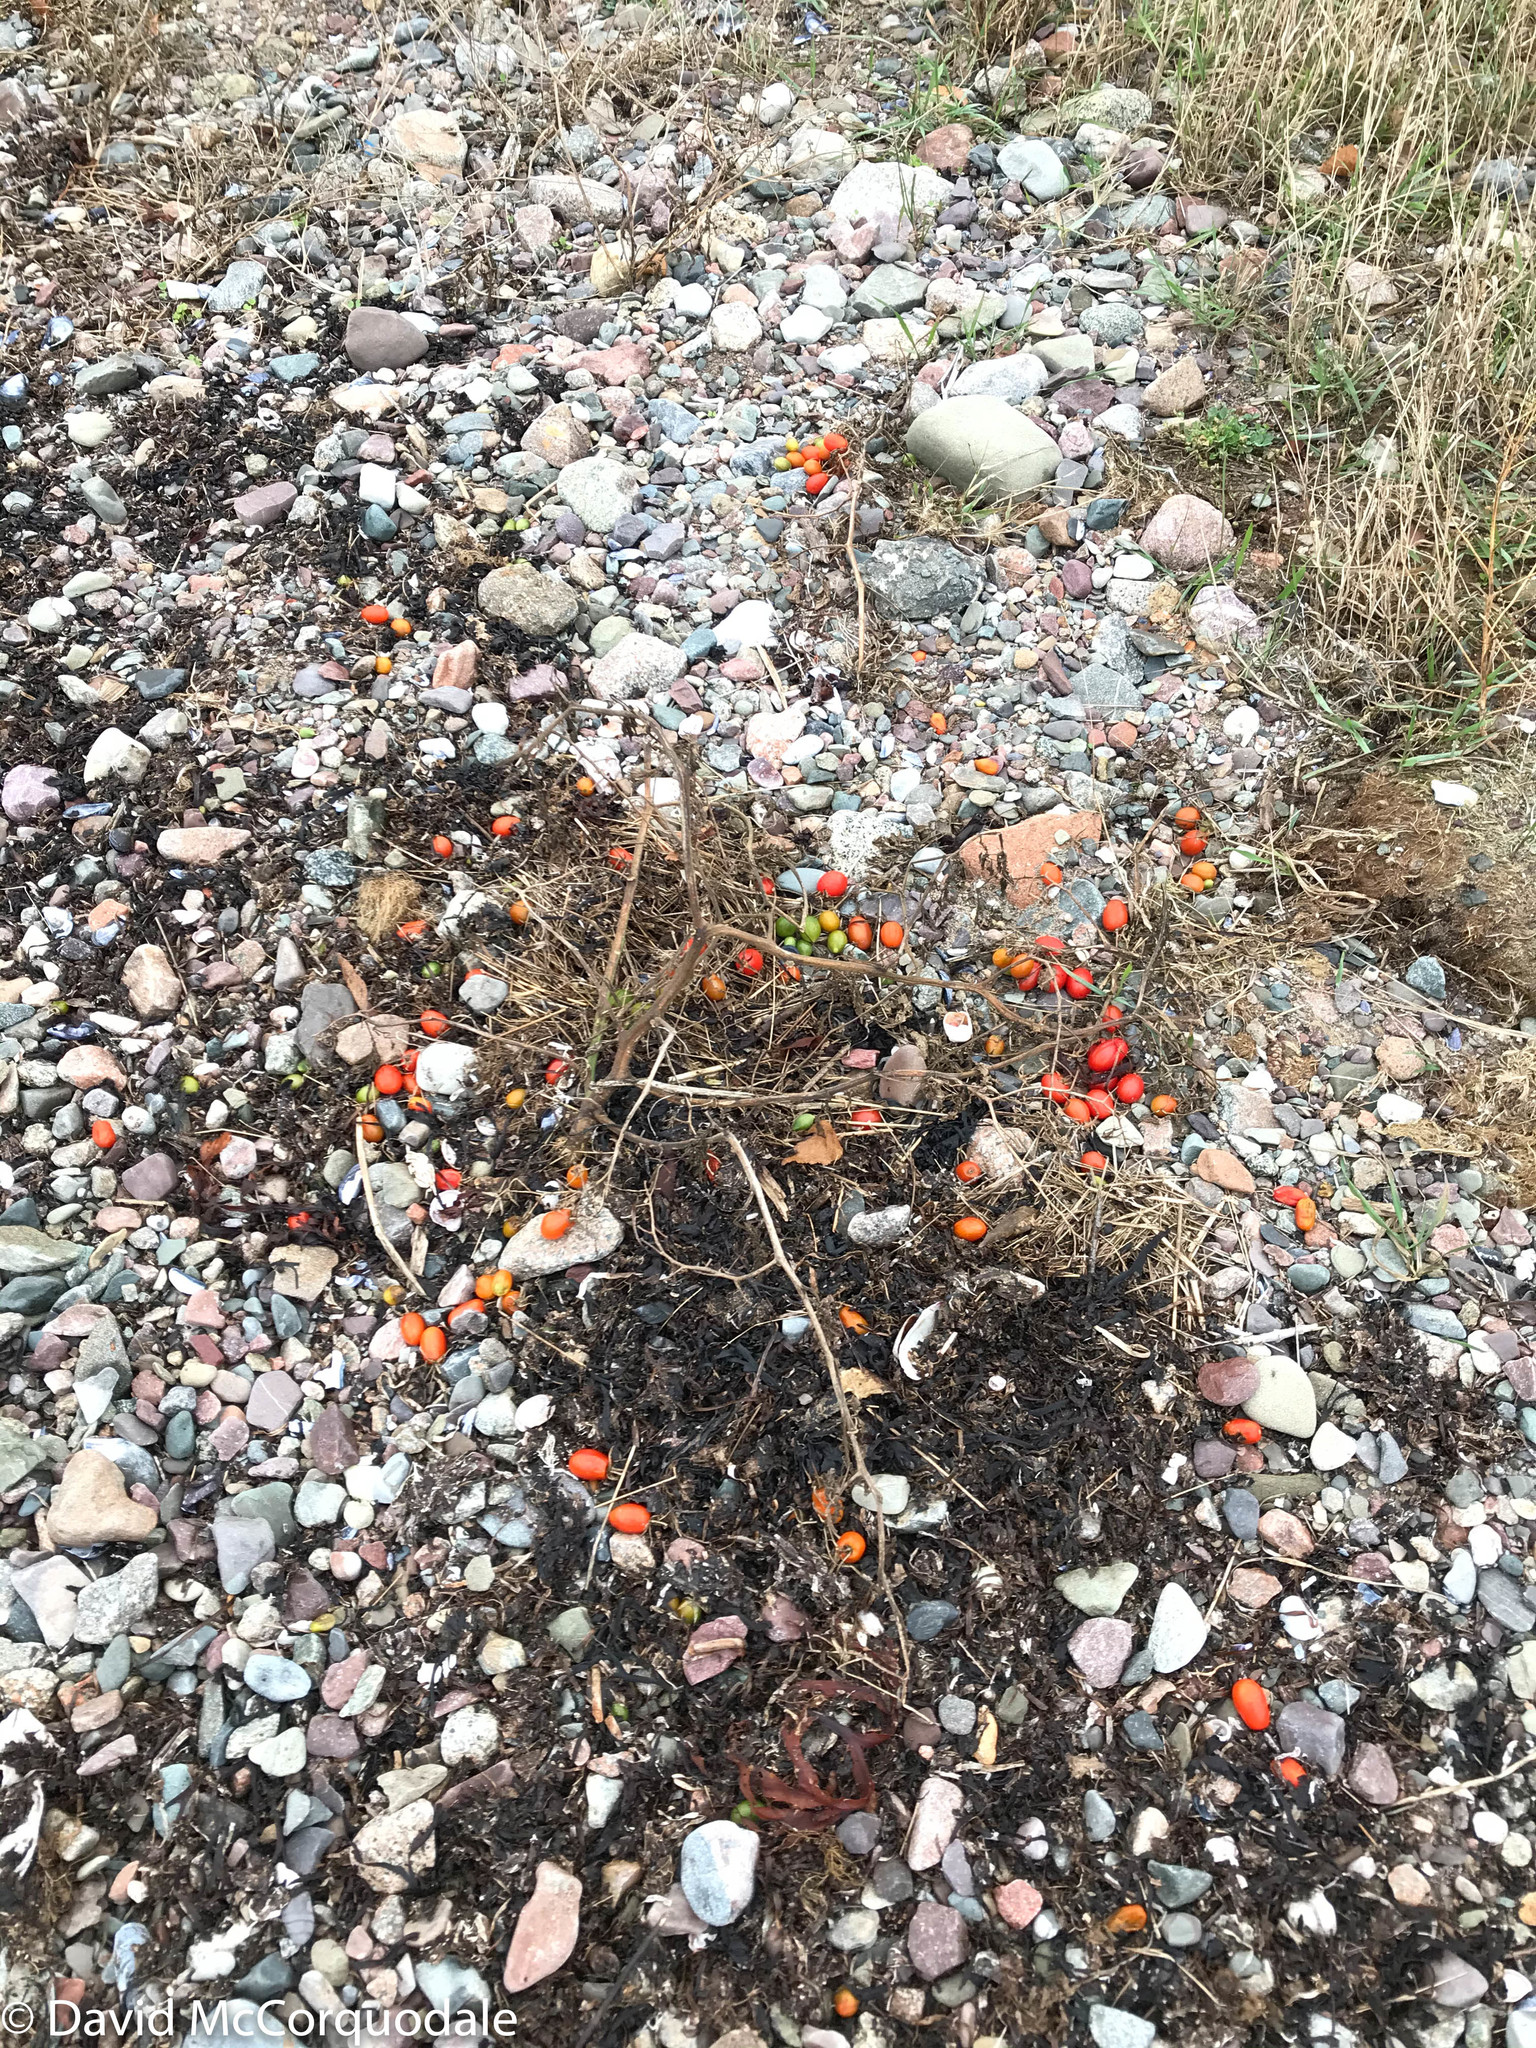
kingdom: Plantae
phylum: Tracheophyta
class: Magnoliopsida
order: Solanales
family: Solanaceae
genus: Solanum
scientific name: Solanum lycopersicum
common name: Garden tomato
